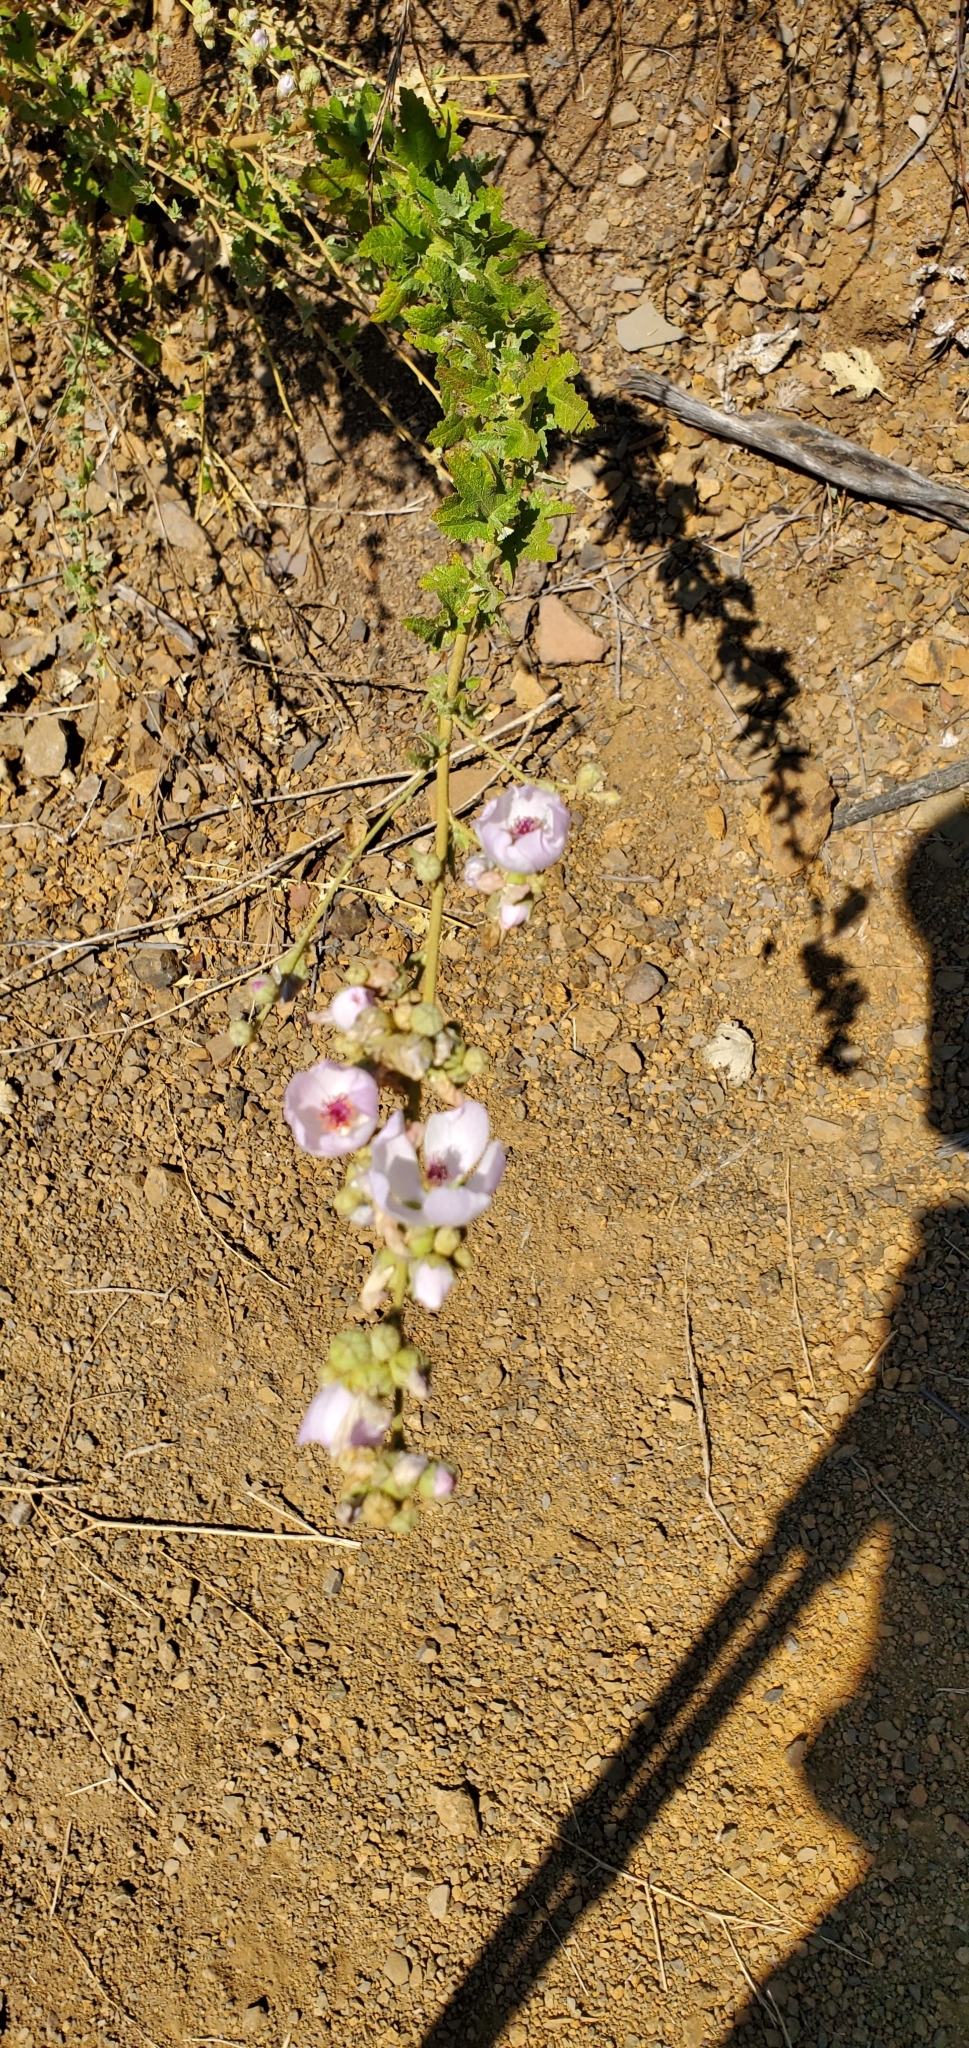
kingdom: Plantae
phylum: Tracheophyta
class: Magnoliopsida
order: Malvales
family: Malvaceae
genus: Malacothamnus
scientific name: Malacothamnus fasciculatus
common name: Sant cruz island bush-mallow
